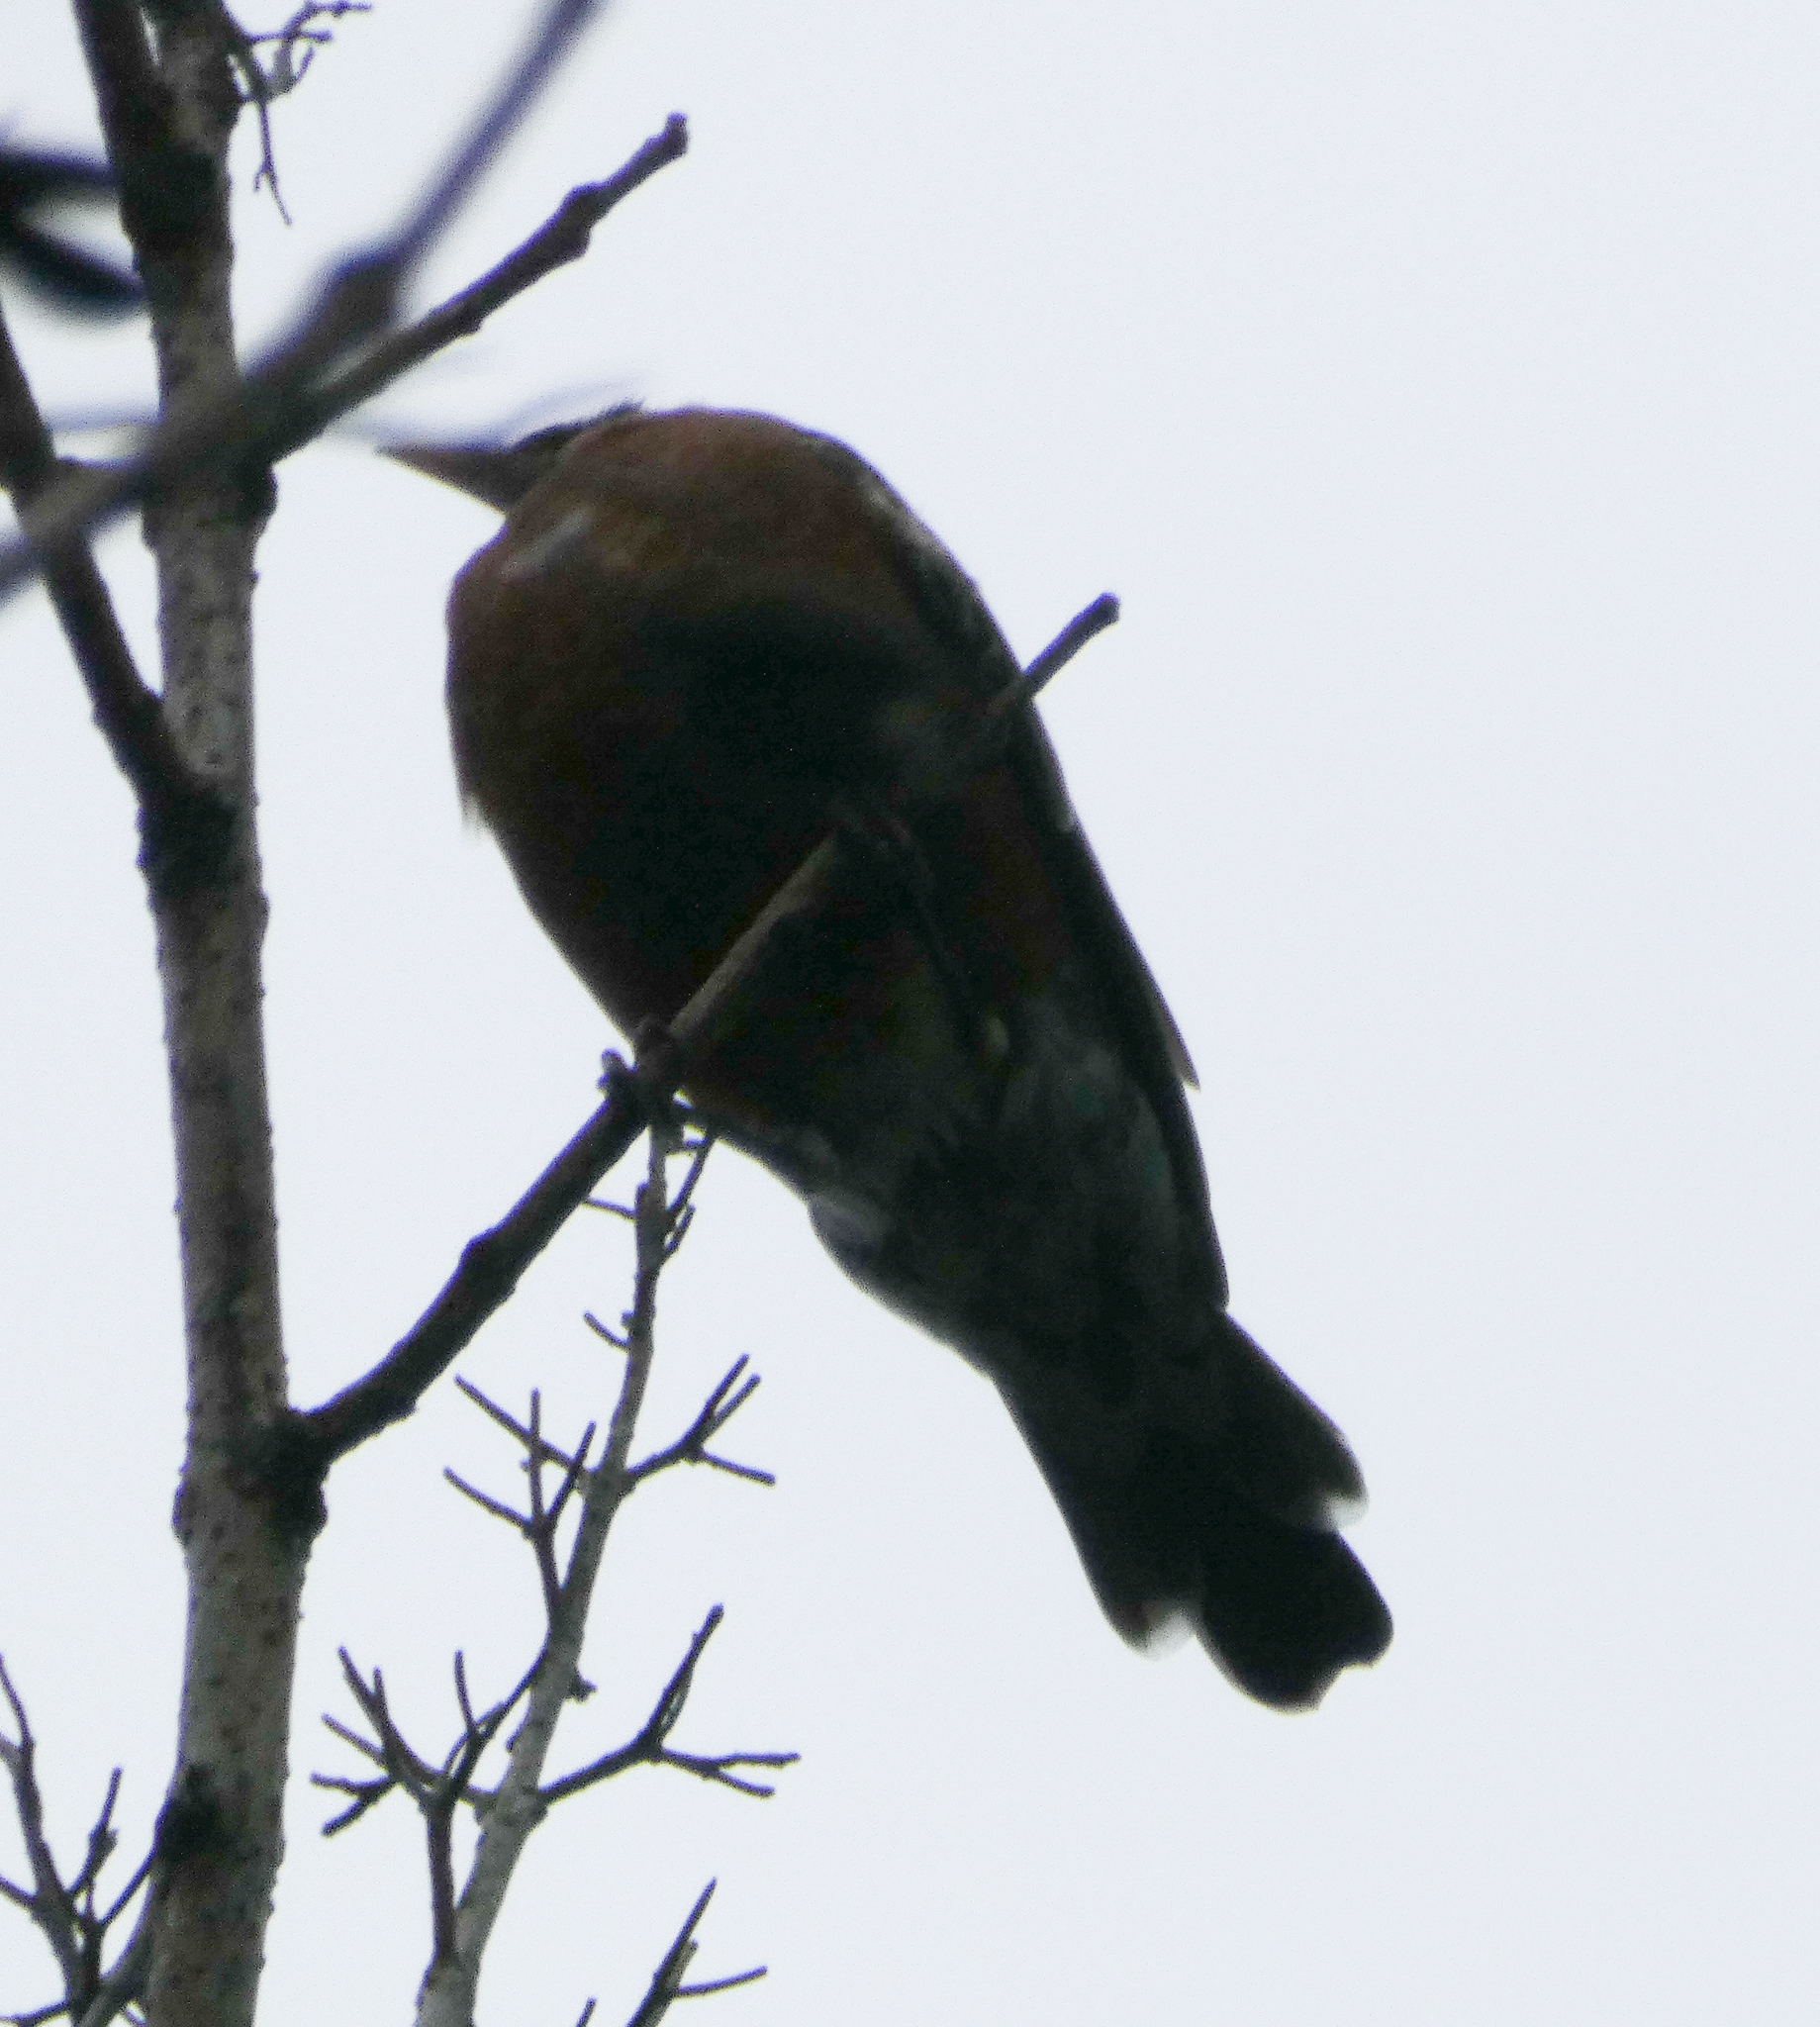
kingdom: Animalia
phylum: Chordata
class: Aves
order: Passeriformes
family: Turdidae
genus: Turdus
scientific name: Turdus migratorius
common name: American robin
